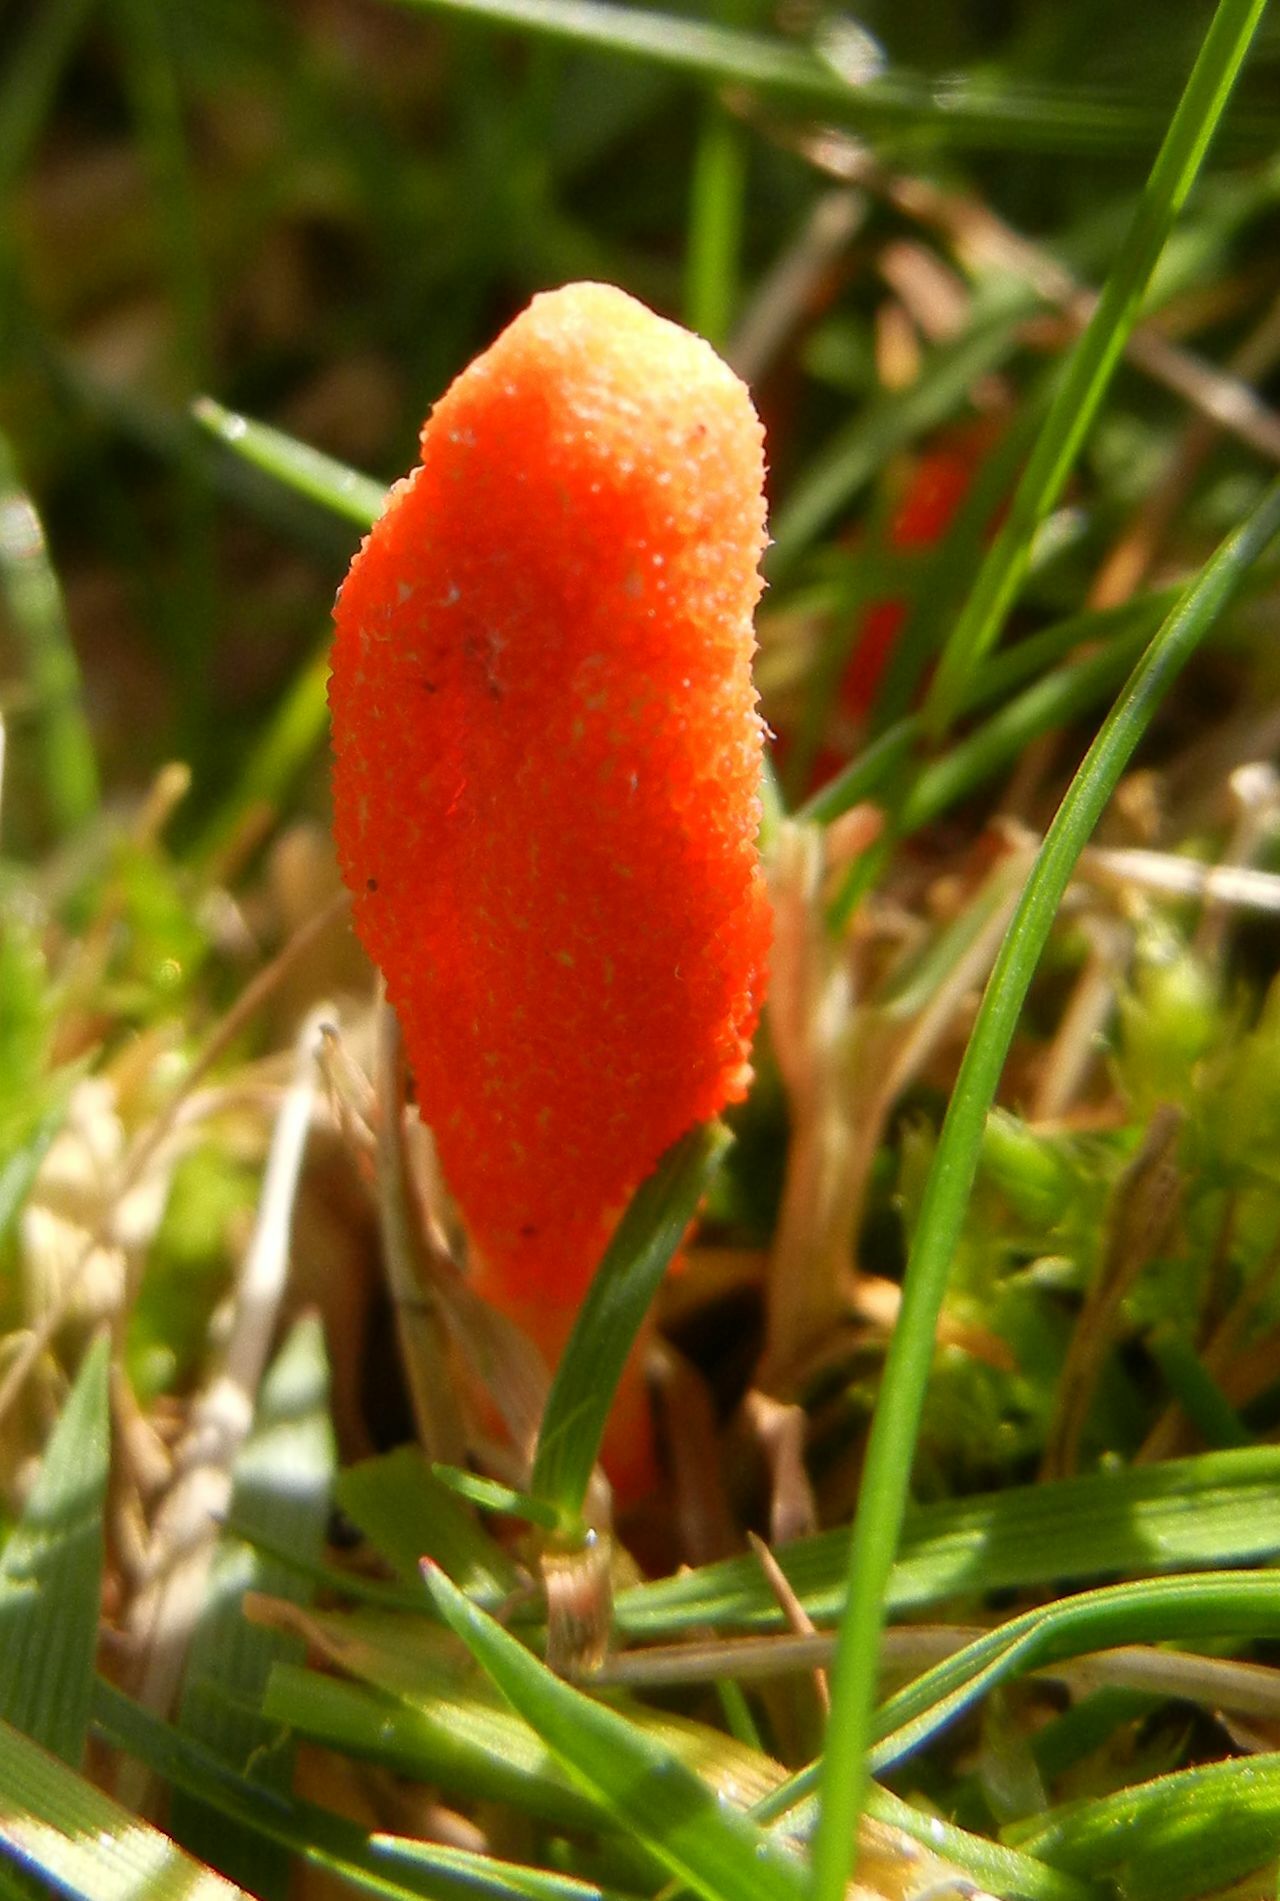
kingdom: Fungi
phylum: Ascomycota
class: Sordariomycetes
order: Hypocreales
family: Cordycipitaceae
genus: Cordyceps
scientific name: Cordyceps militaris
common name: Scarlet caterpillar fungus
